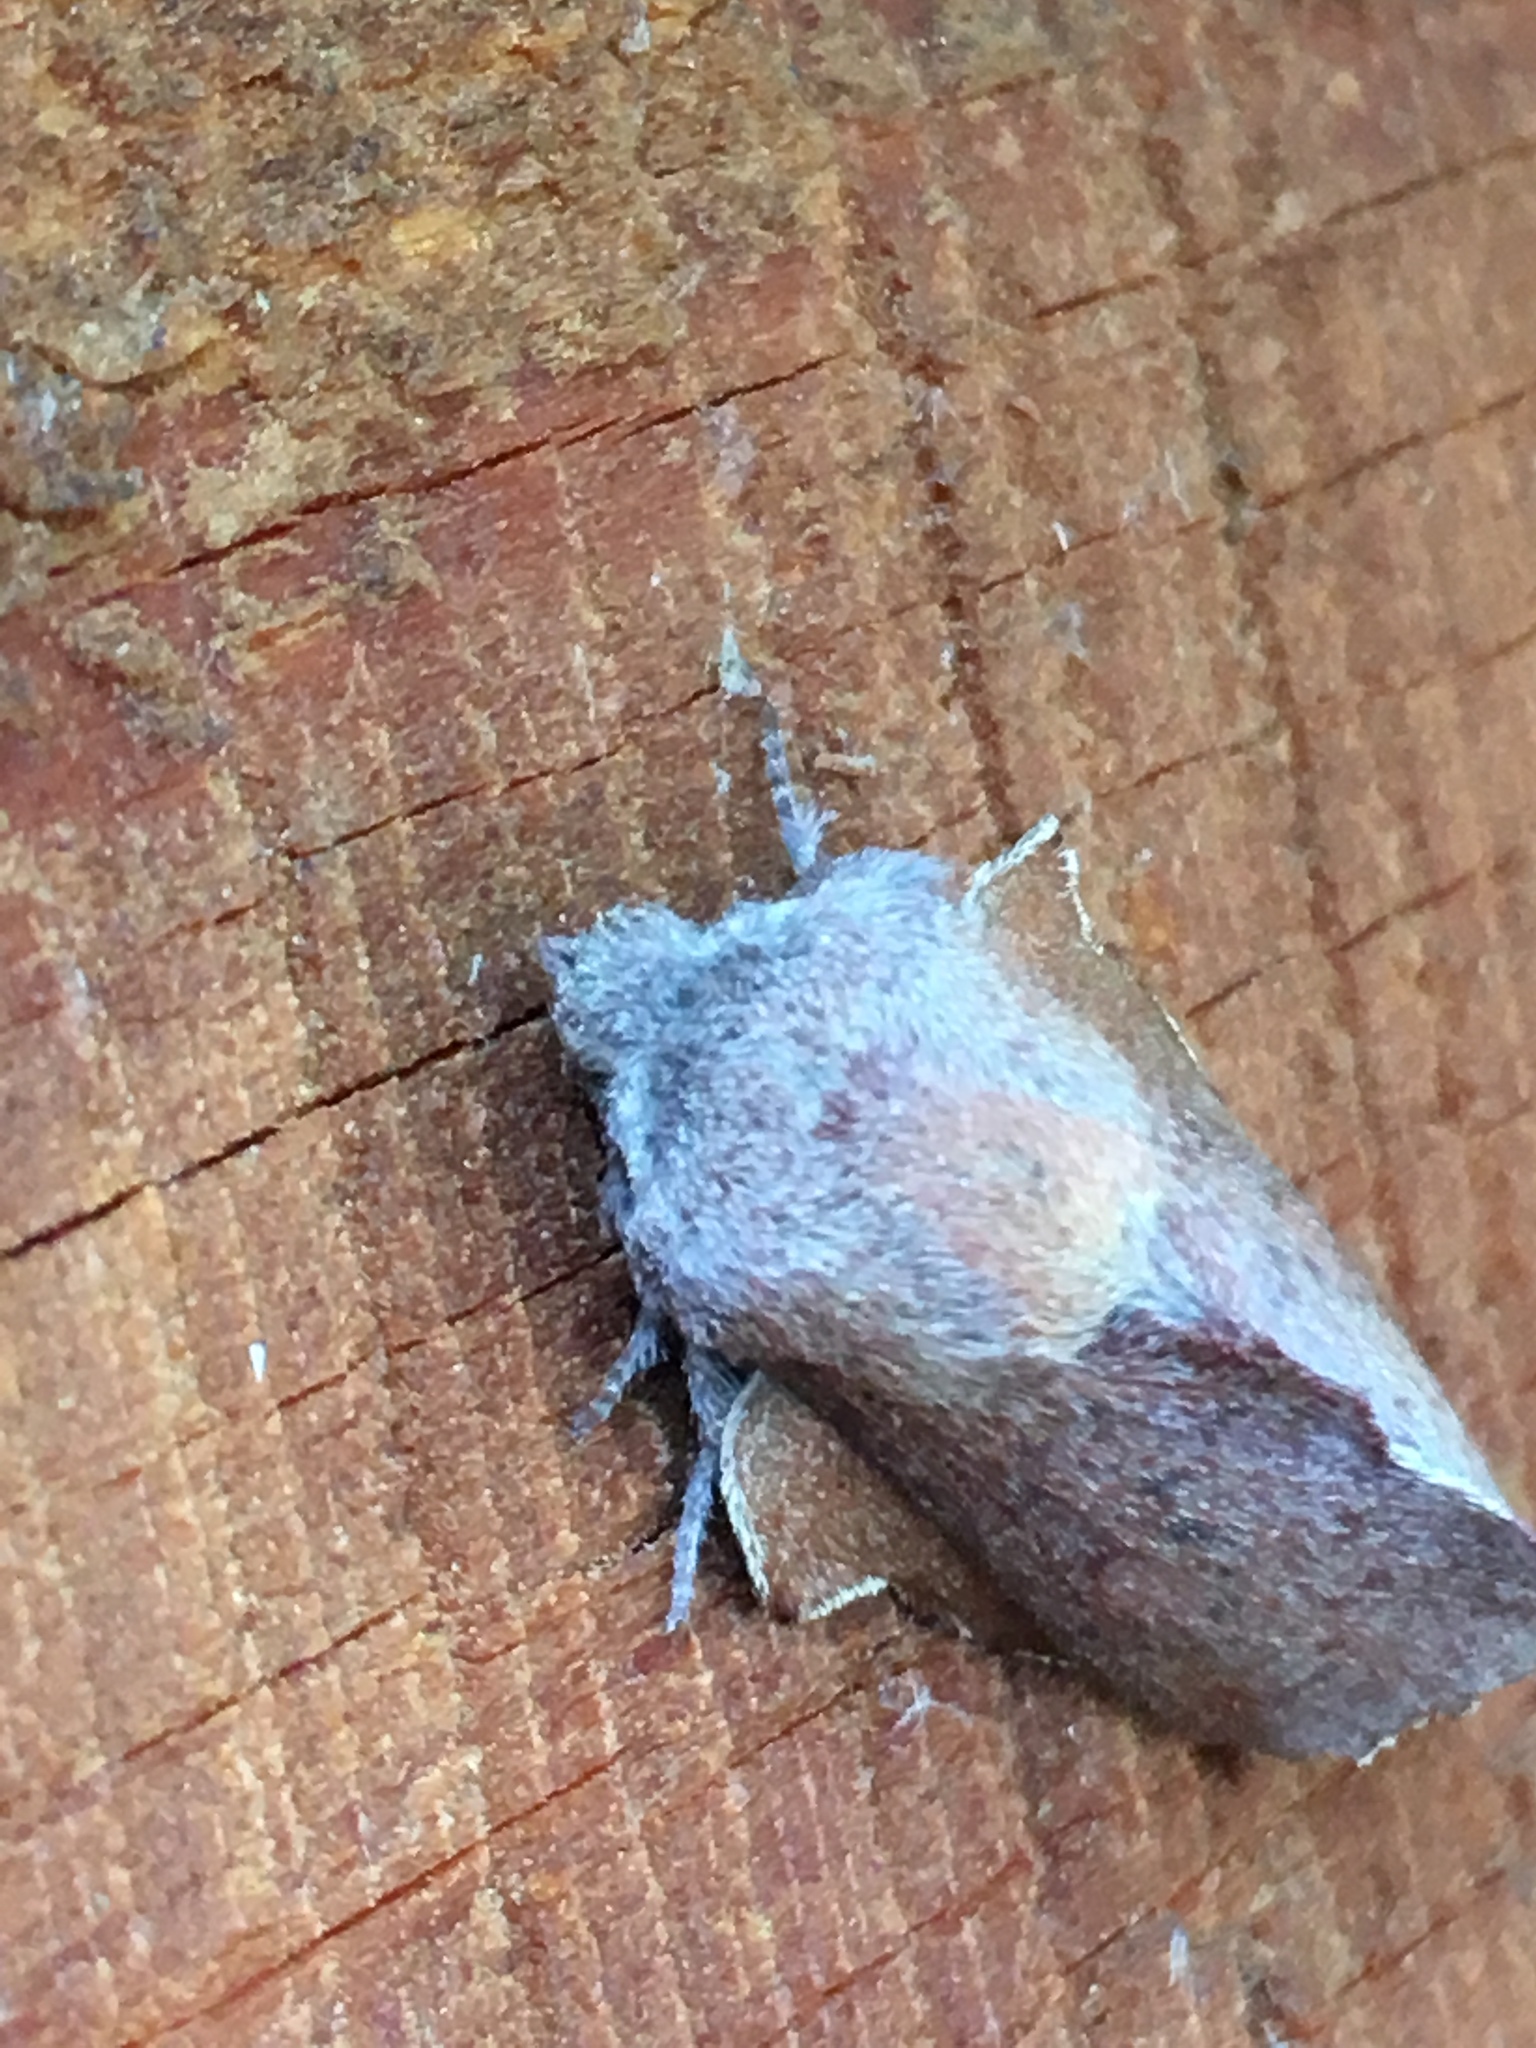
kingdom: Animalia
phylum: Arthropoda
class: Insecta
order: Lepidoptera
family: Lasiocampidae
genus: Phyllodesma
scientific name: Phyllodesma americana
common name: American lappet moth
